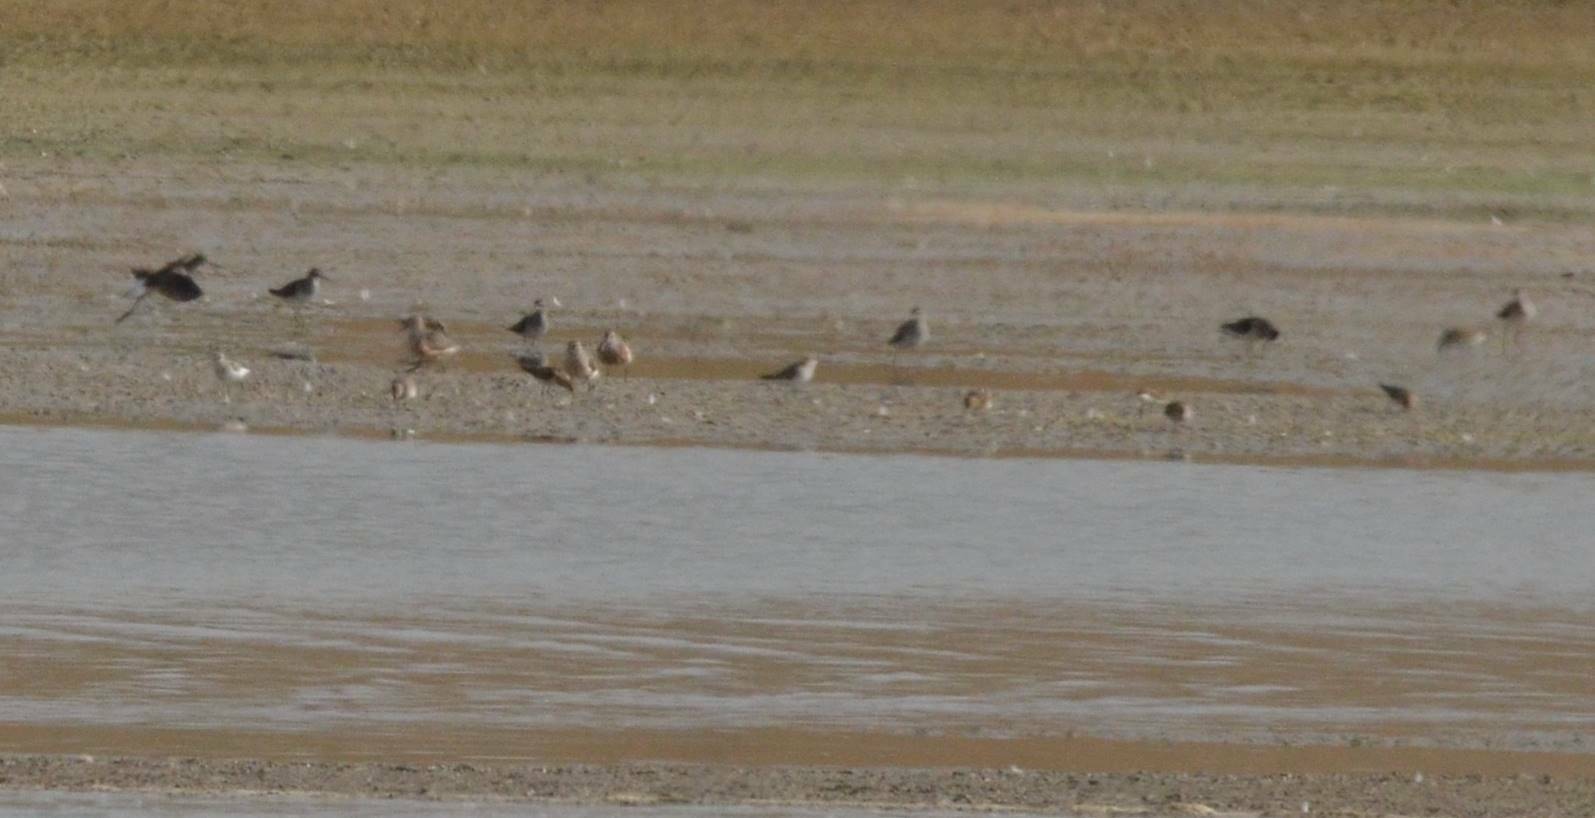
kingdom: Animalia
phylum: Chordata
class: Aves
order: Charadriiformes
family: Scolopacidae
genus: Calidris
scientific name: Calidris ferruginea
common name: Curlew sandpiper
